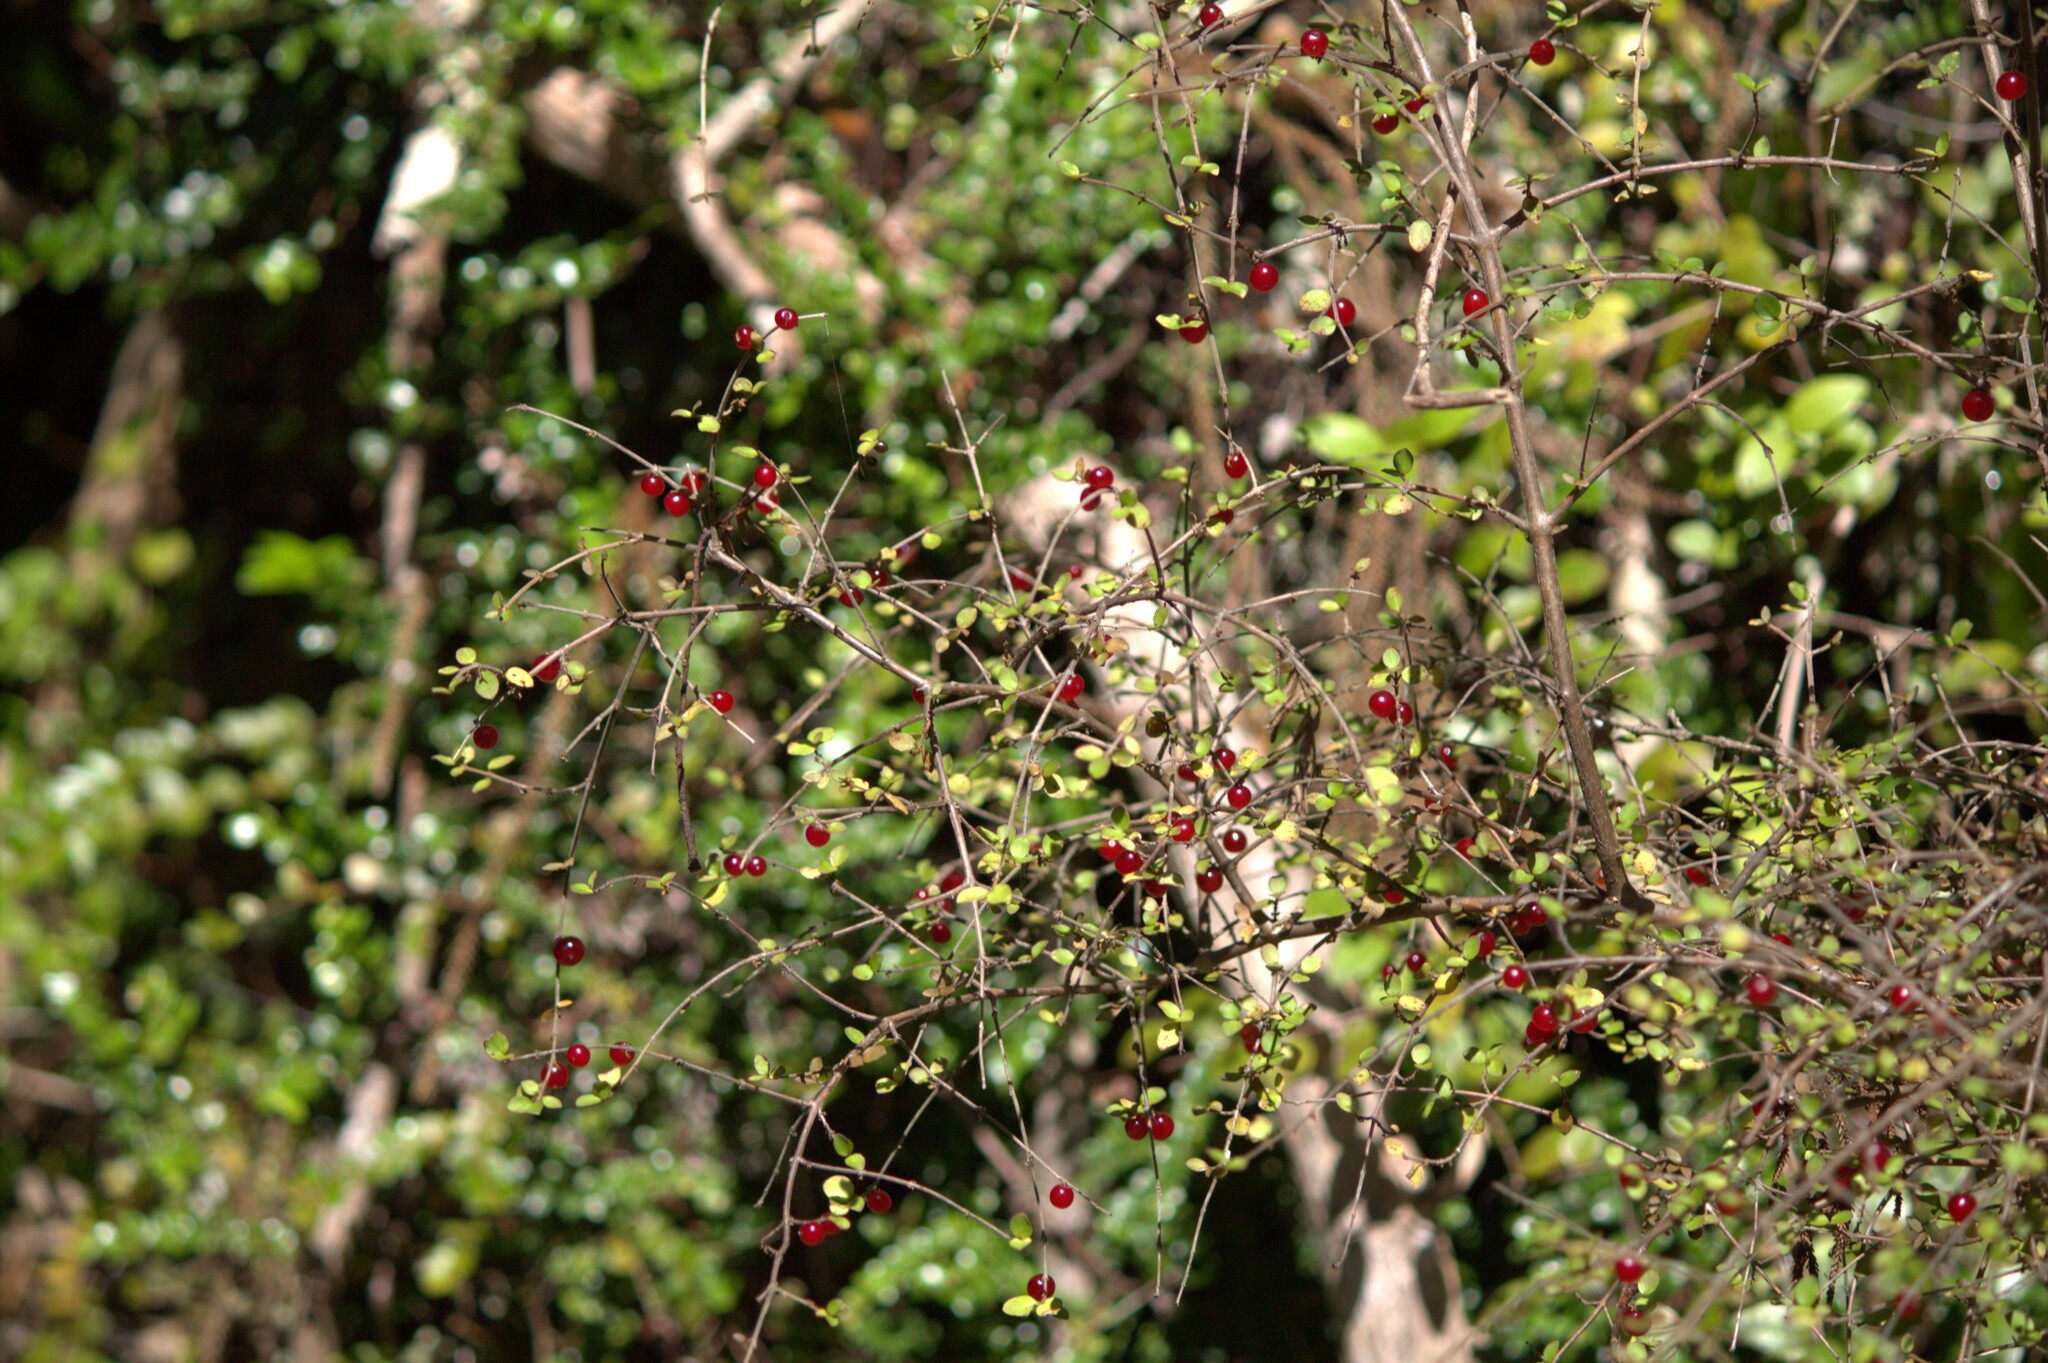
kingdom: Plantae
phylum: Tracheophyta
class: Magnoliopsida
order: Gentianales
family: Rubiaceae
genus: Coprosma
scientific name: Coprosma rhamnoides
